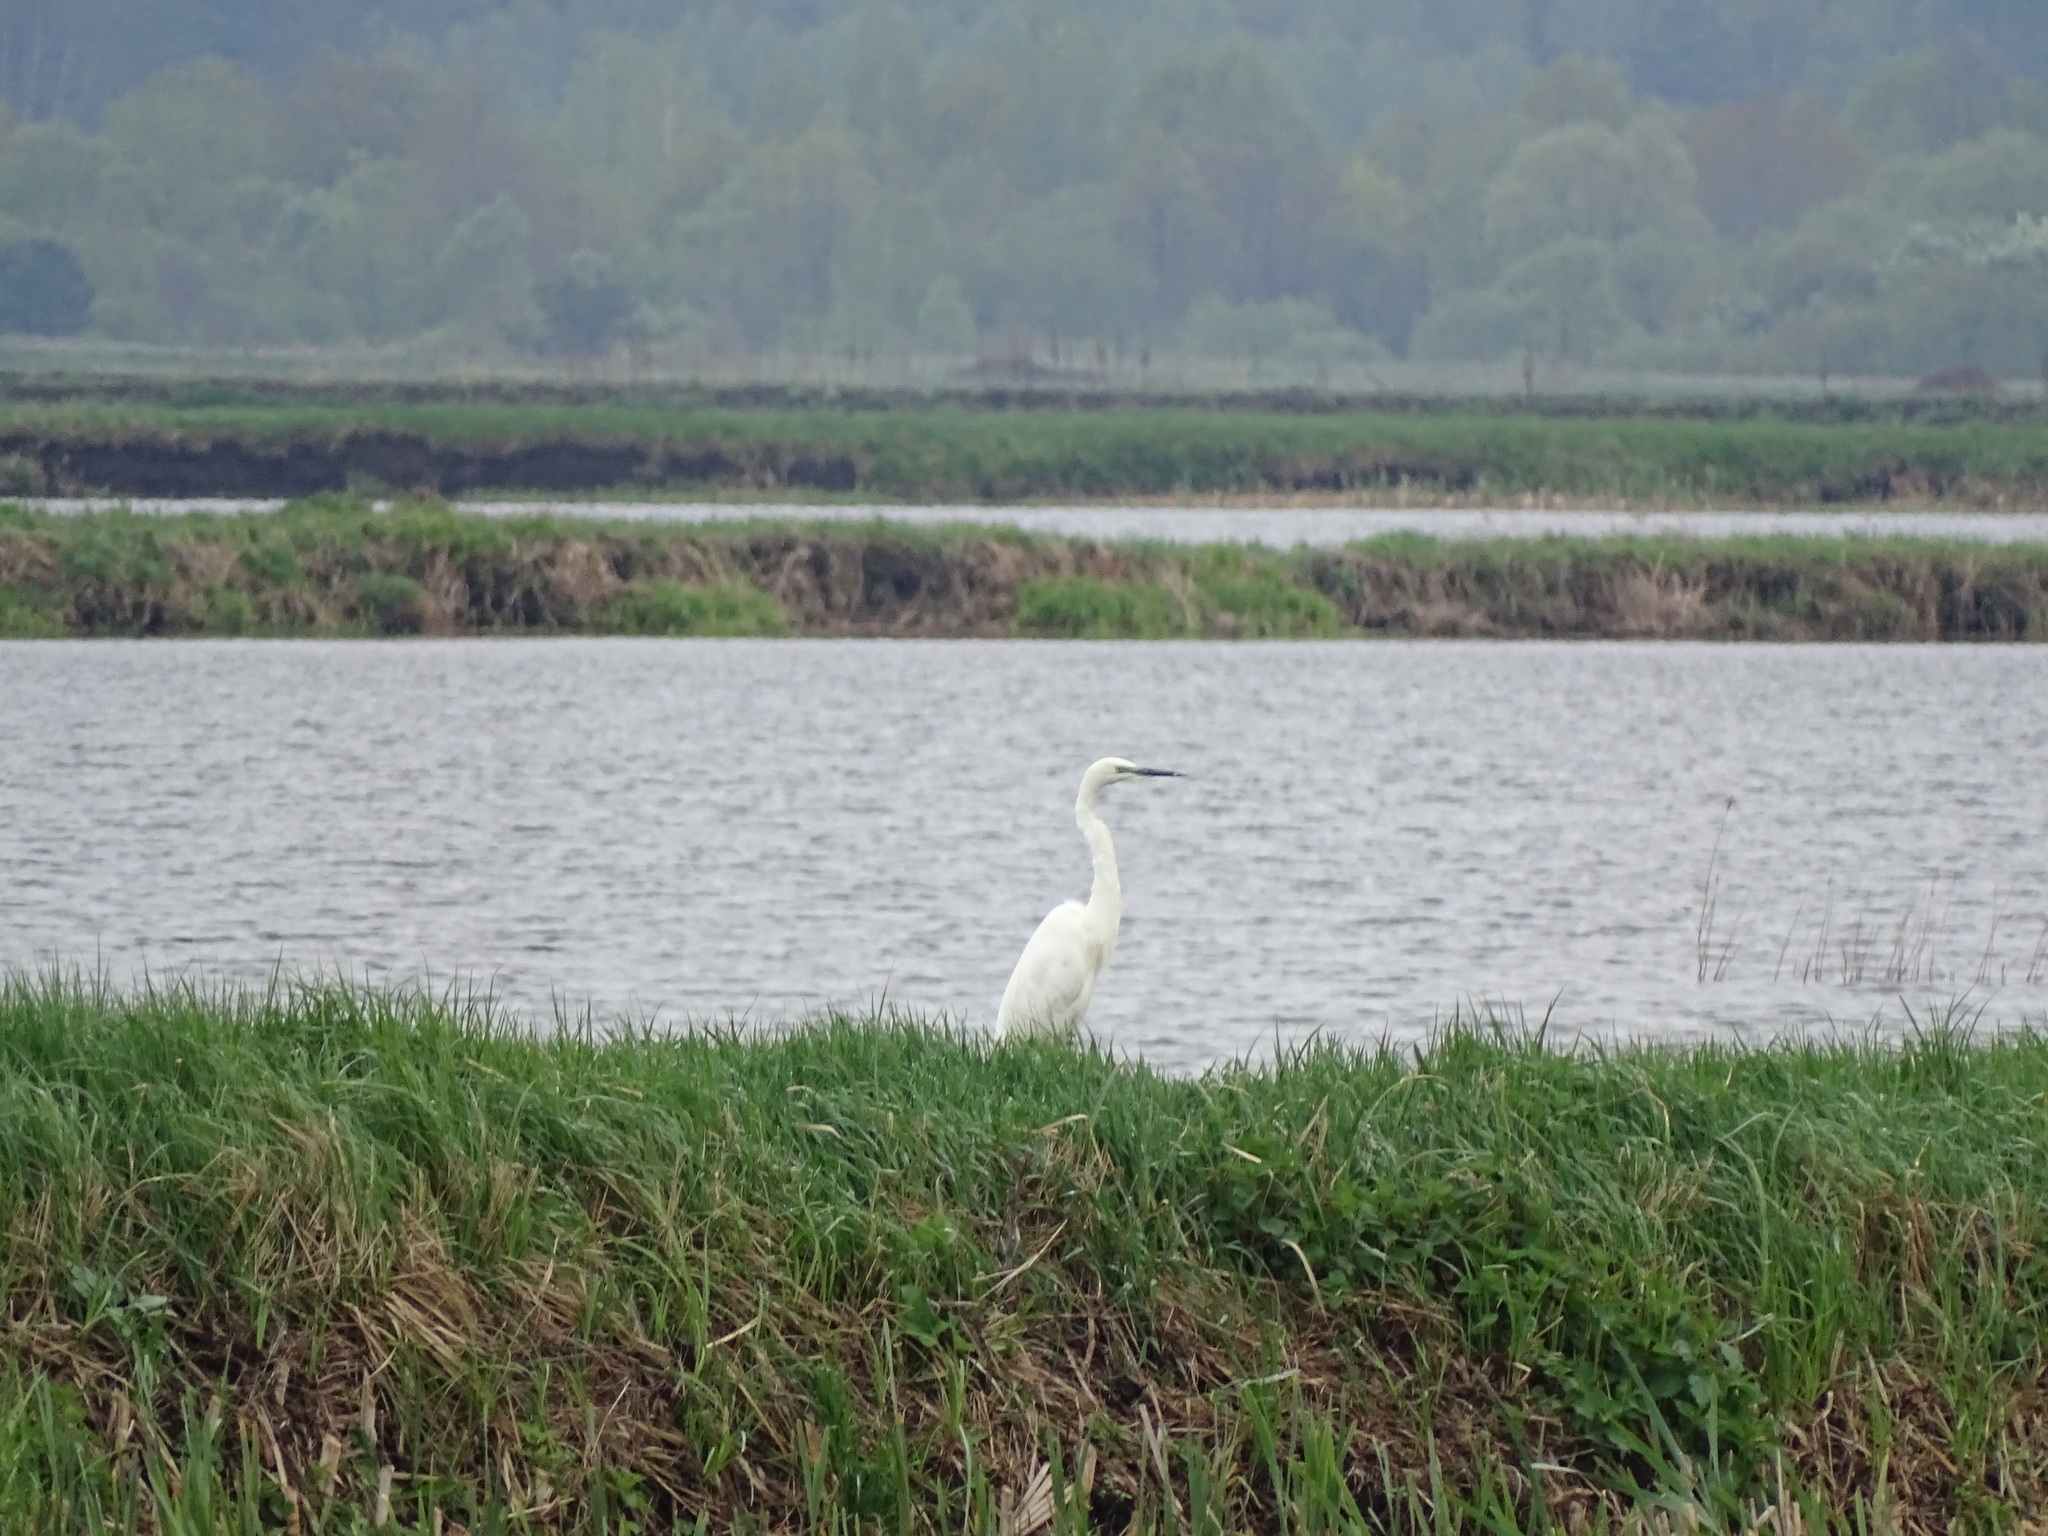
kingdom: Animalia
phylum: Chordata
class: Aves
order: Pelecaniformes
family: Ardeidae
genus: Ardea
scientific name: Ardea alba
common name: Great egret
